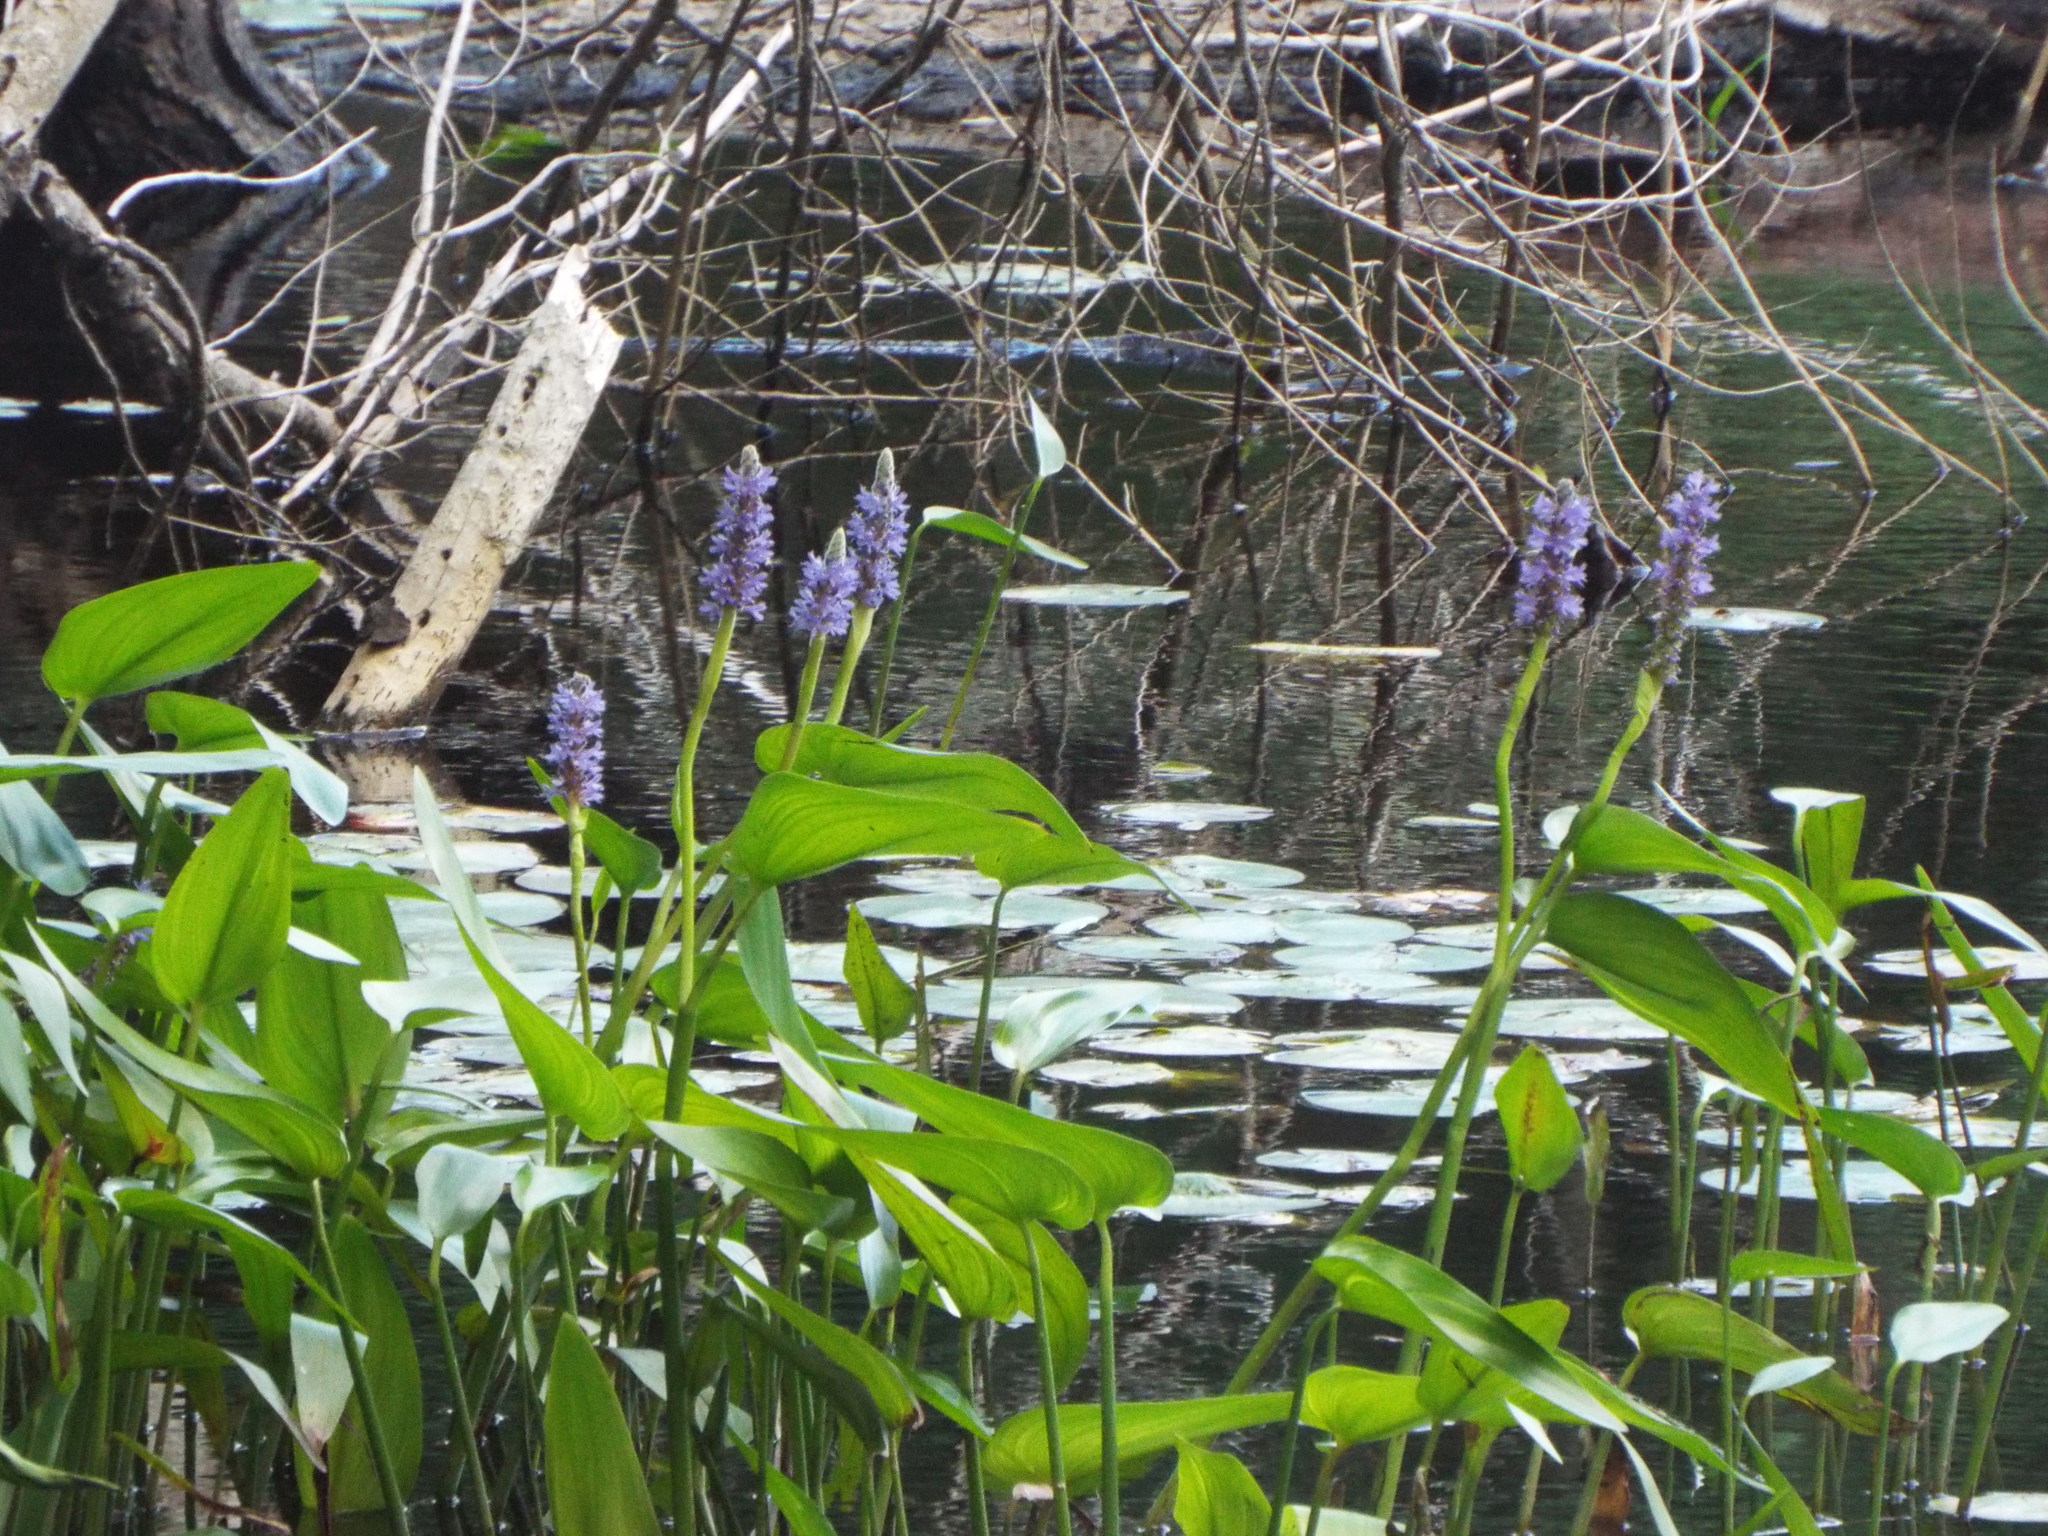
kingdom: Plantae
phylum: Tracheophyta
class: Liliopsida
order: Commelinales
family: Pontederiaceae
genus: Pontederia
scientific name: Pontederia cordata
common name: Pickerelweed
